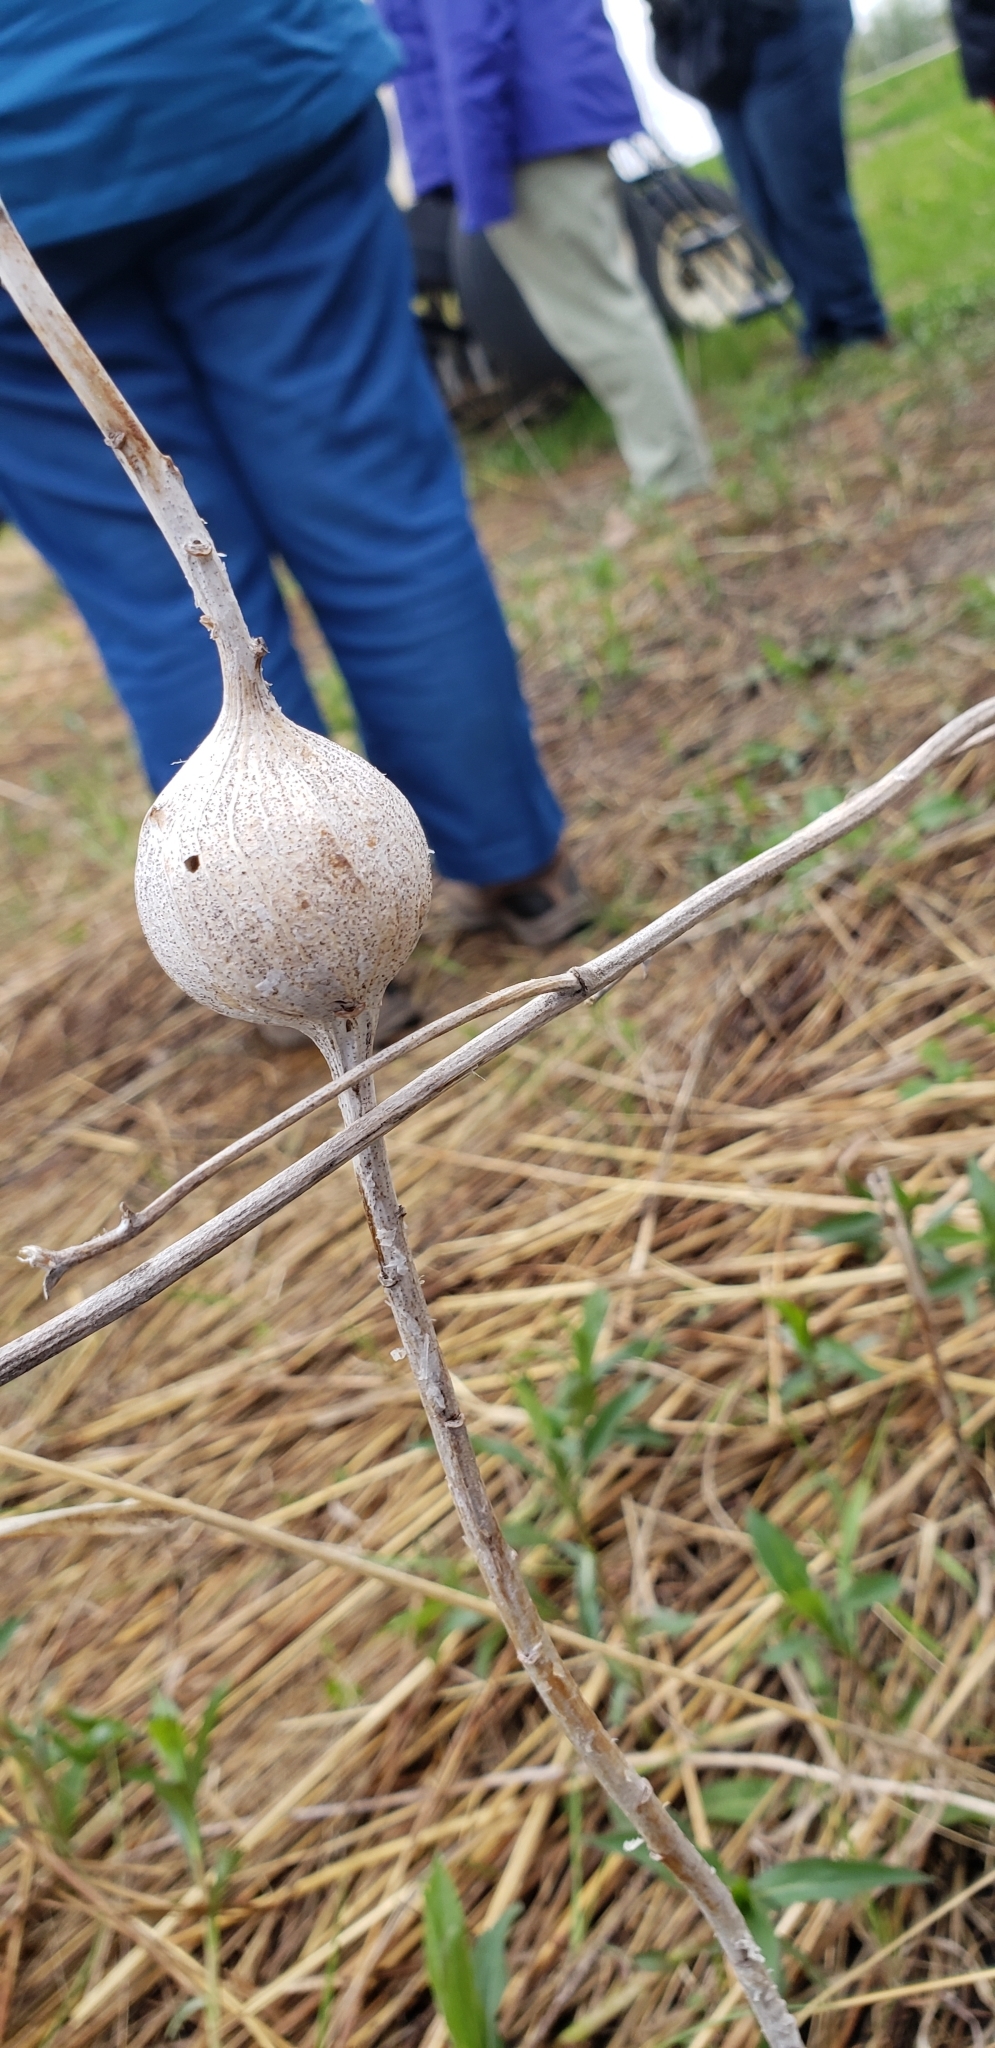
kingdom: Animalia
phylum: Arthropoda
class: Insecta
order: Diptera
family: Tephritidae
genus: Eurosta
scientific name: Eurosta solidaginis
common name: Goldenrod gall fly
